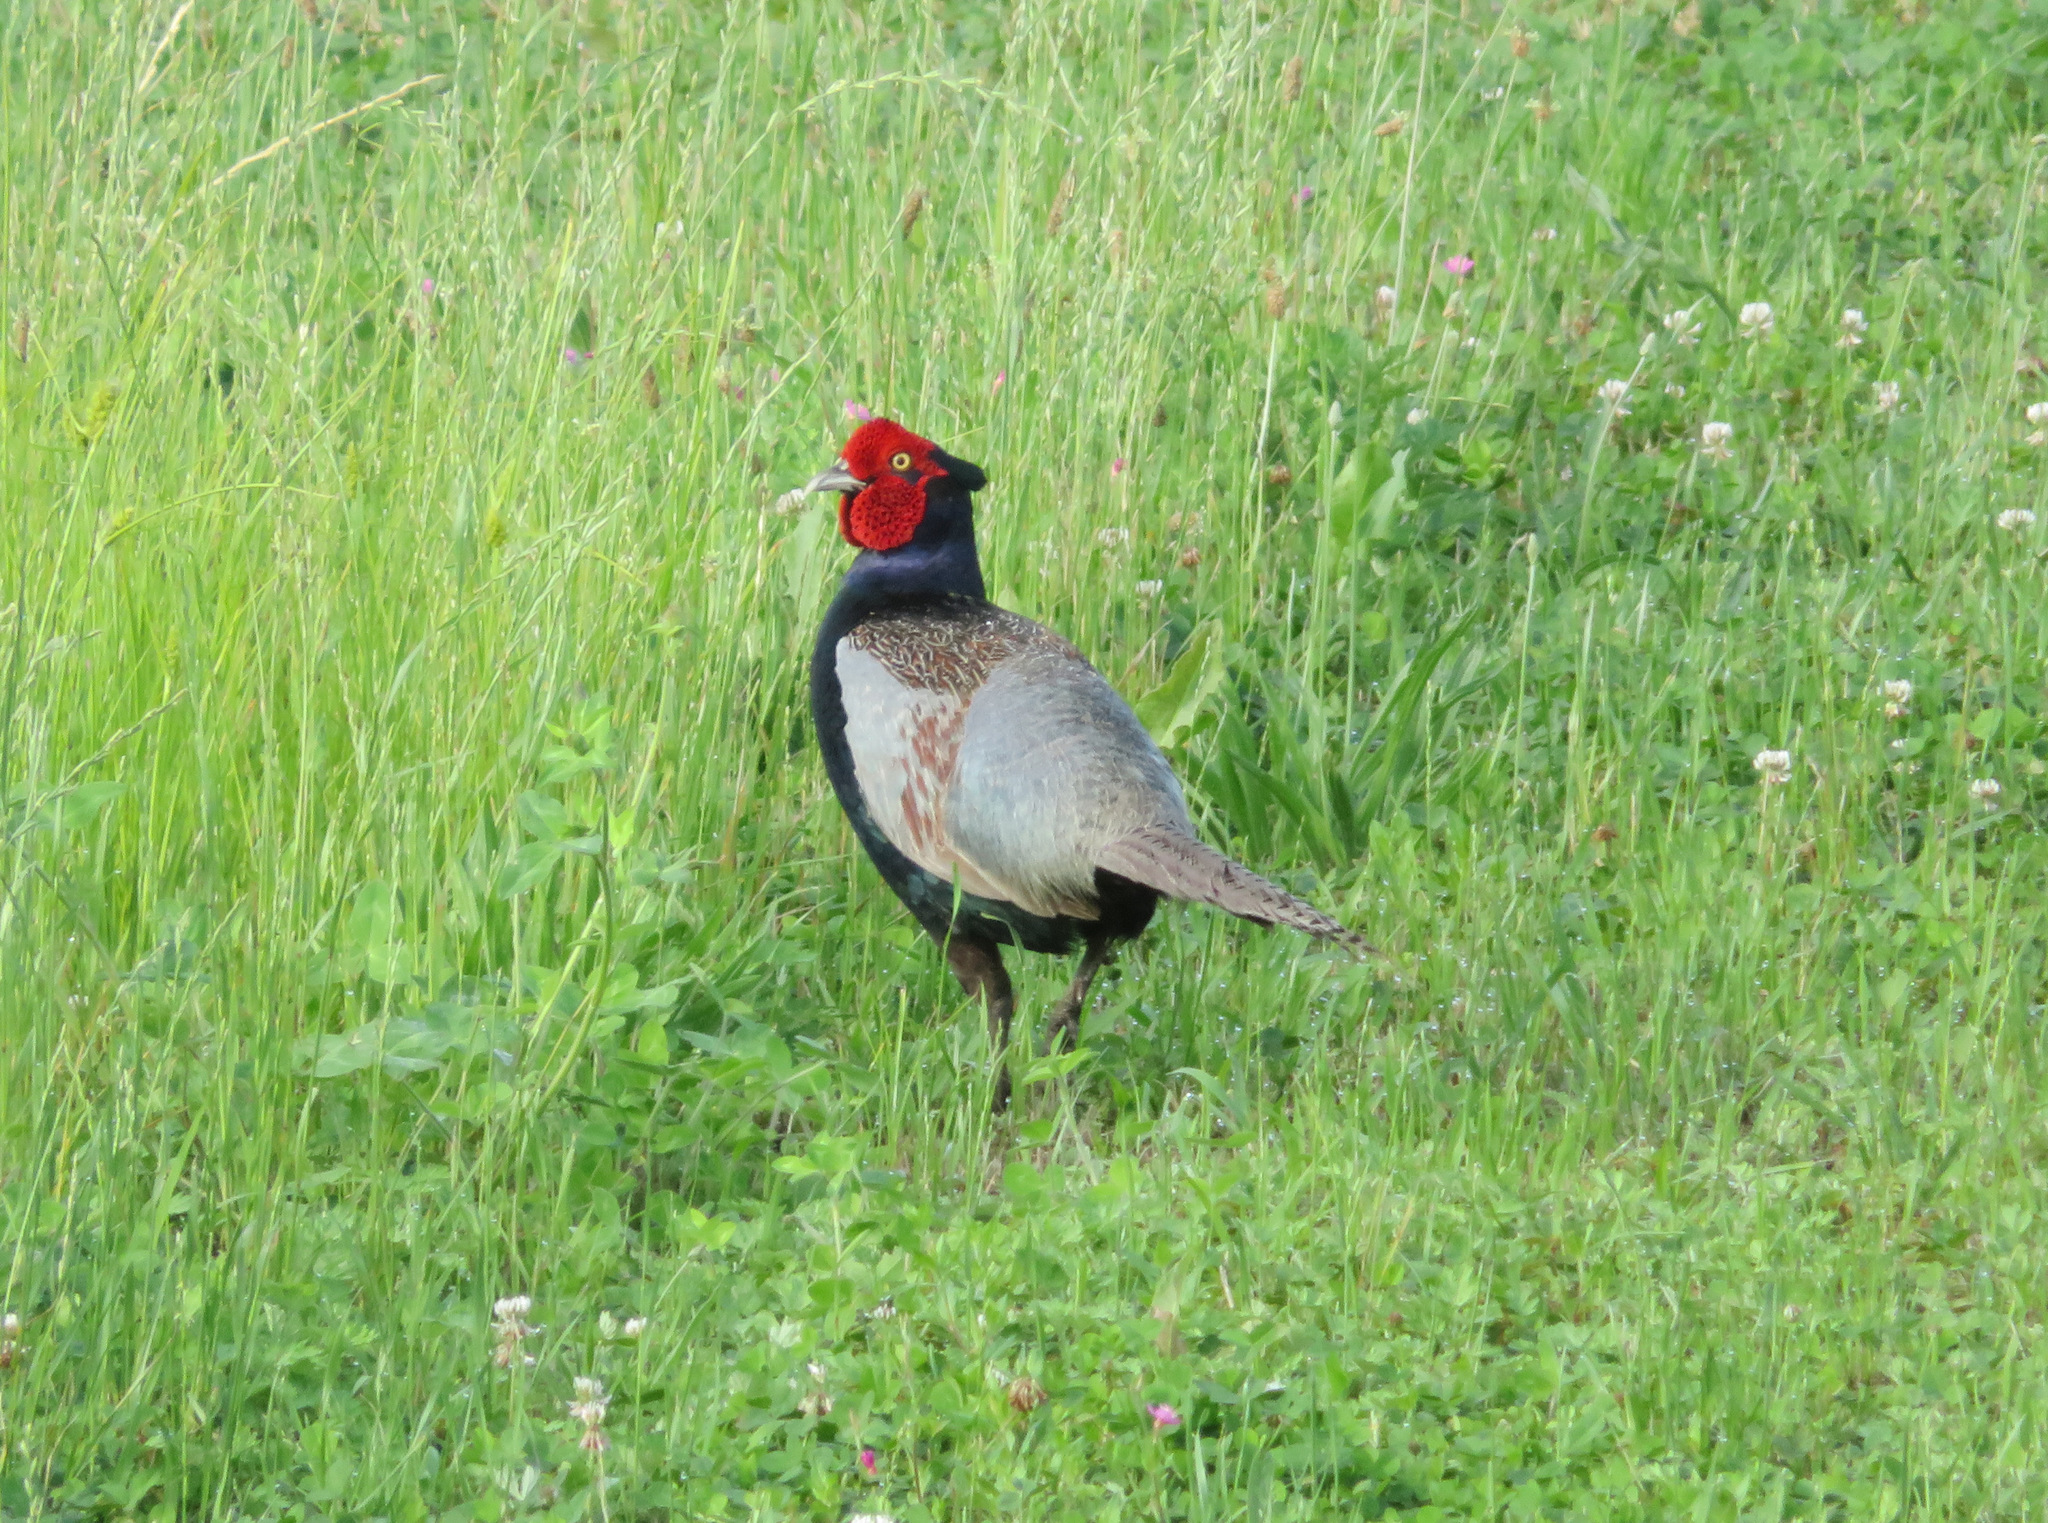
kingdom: Animalia
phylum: Chordata
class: Aves
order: Galliformes
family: Phasianidae
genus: Phasianus
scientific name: Phasianus versicolor
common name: Green pheasant
